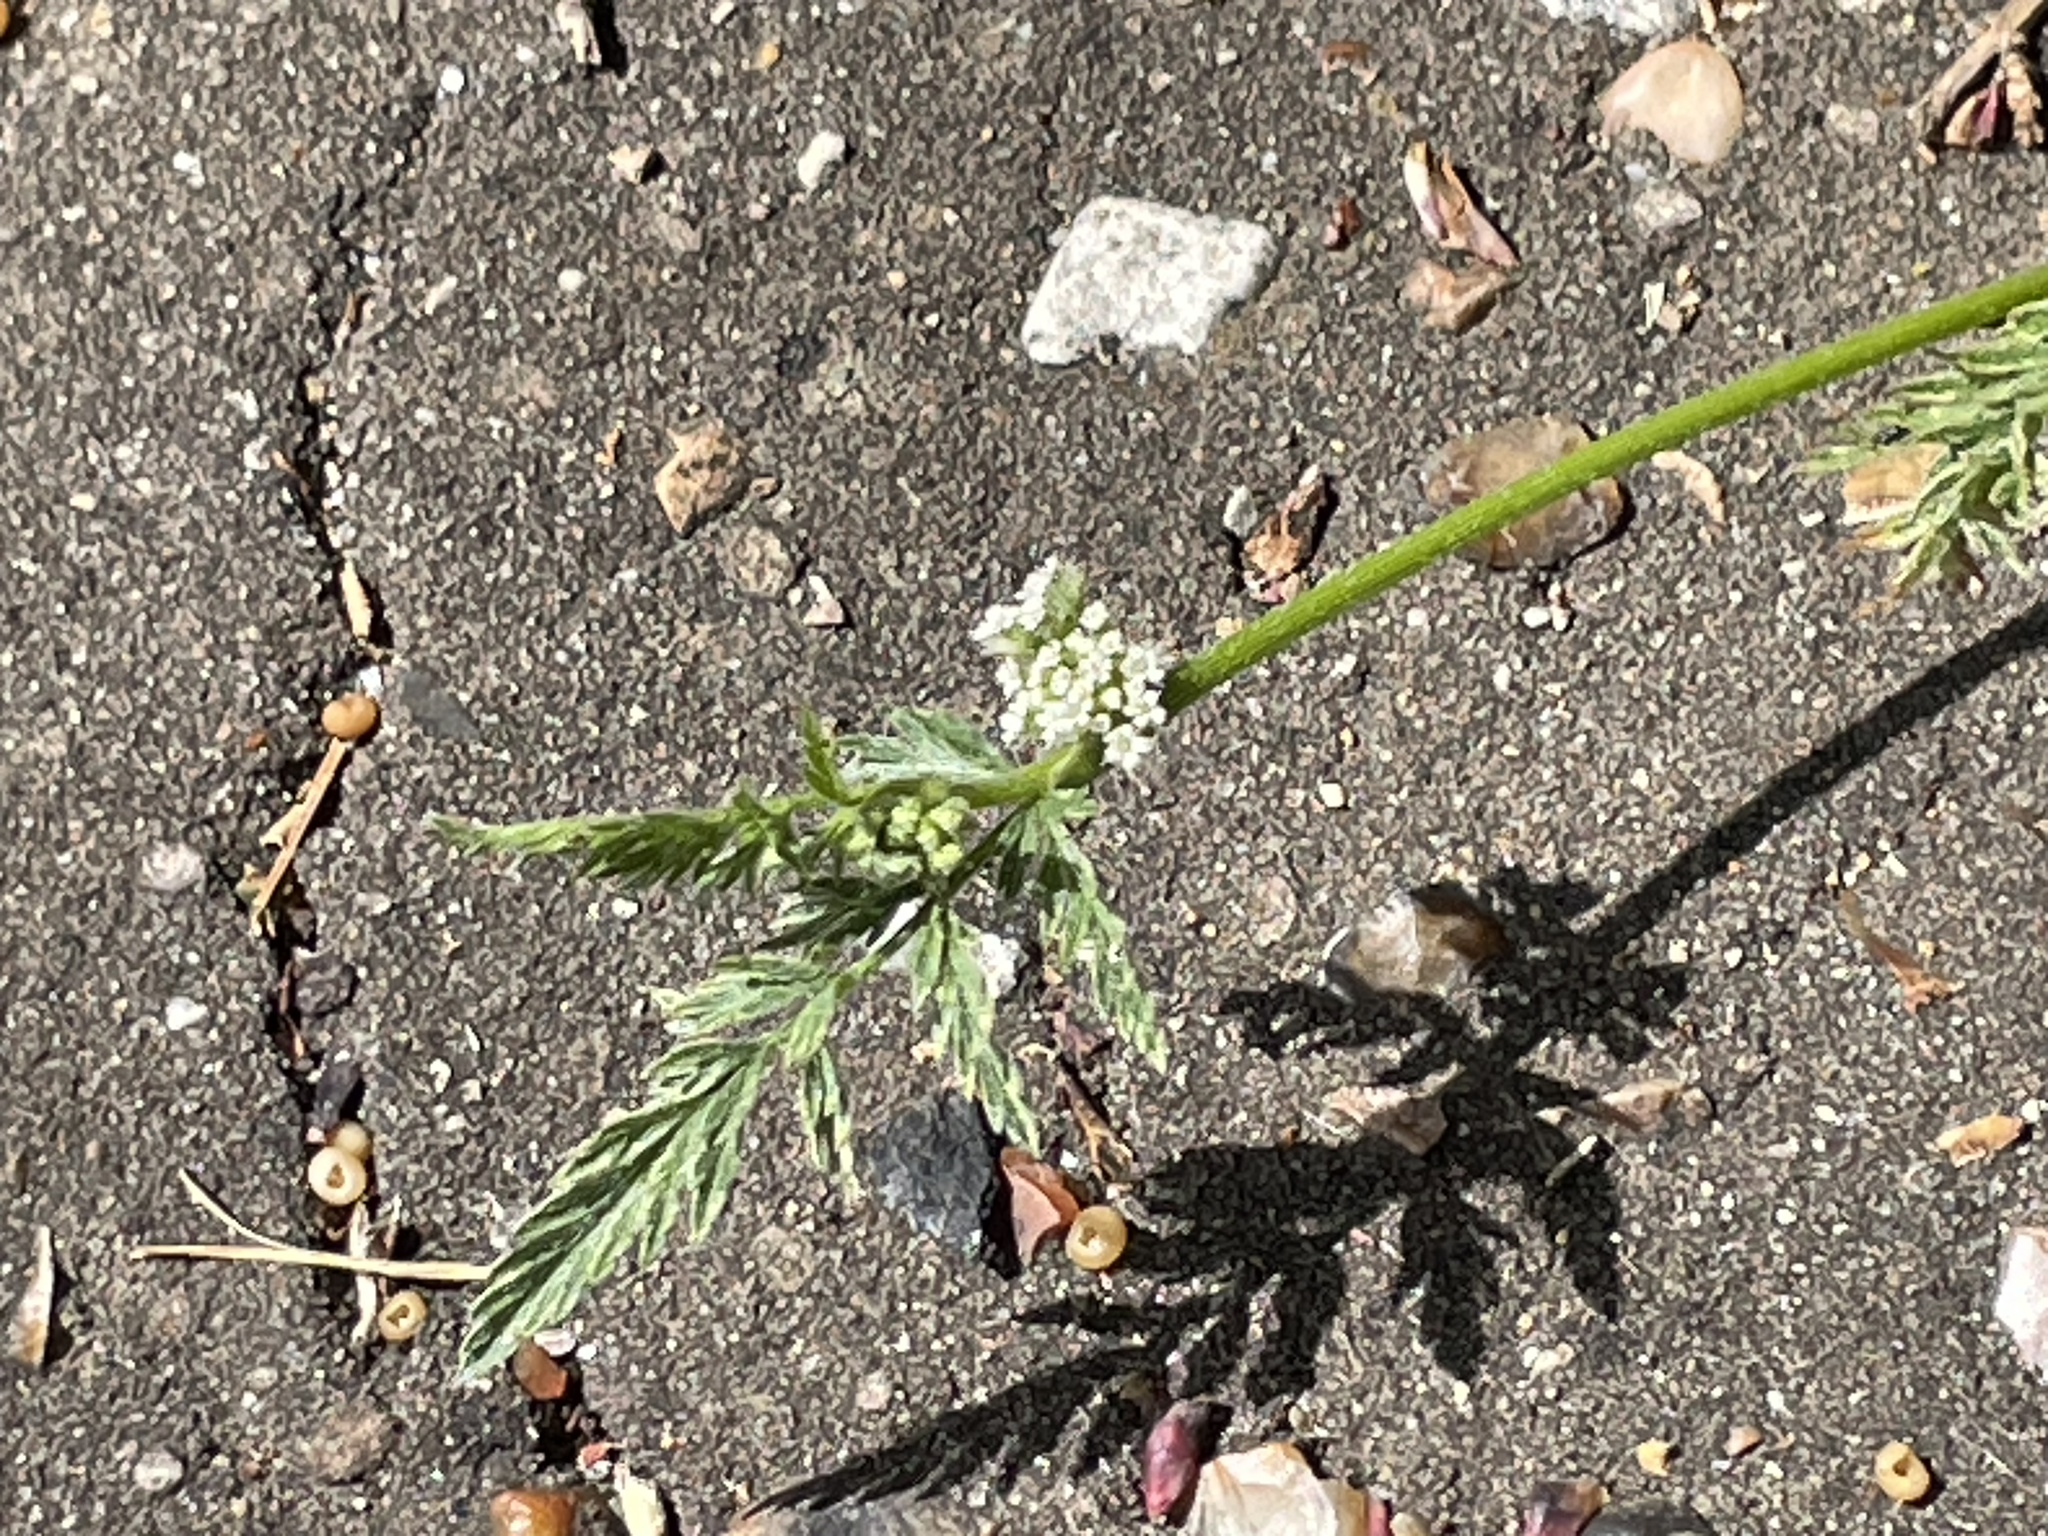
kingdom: Plantae
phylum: Tracheophyta
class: Magnoliopsida
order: Apiales
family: Apiaceae
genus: Torilis
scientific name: Torilis nodosa
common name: Knotted hedge-parsley
